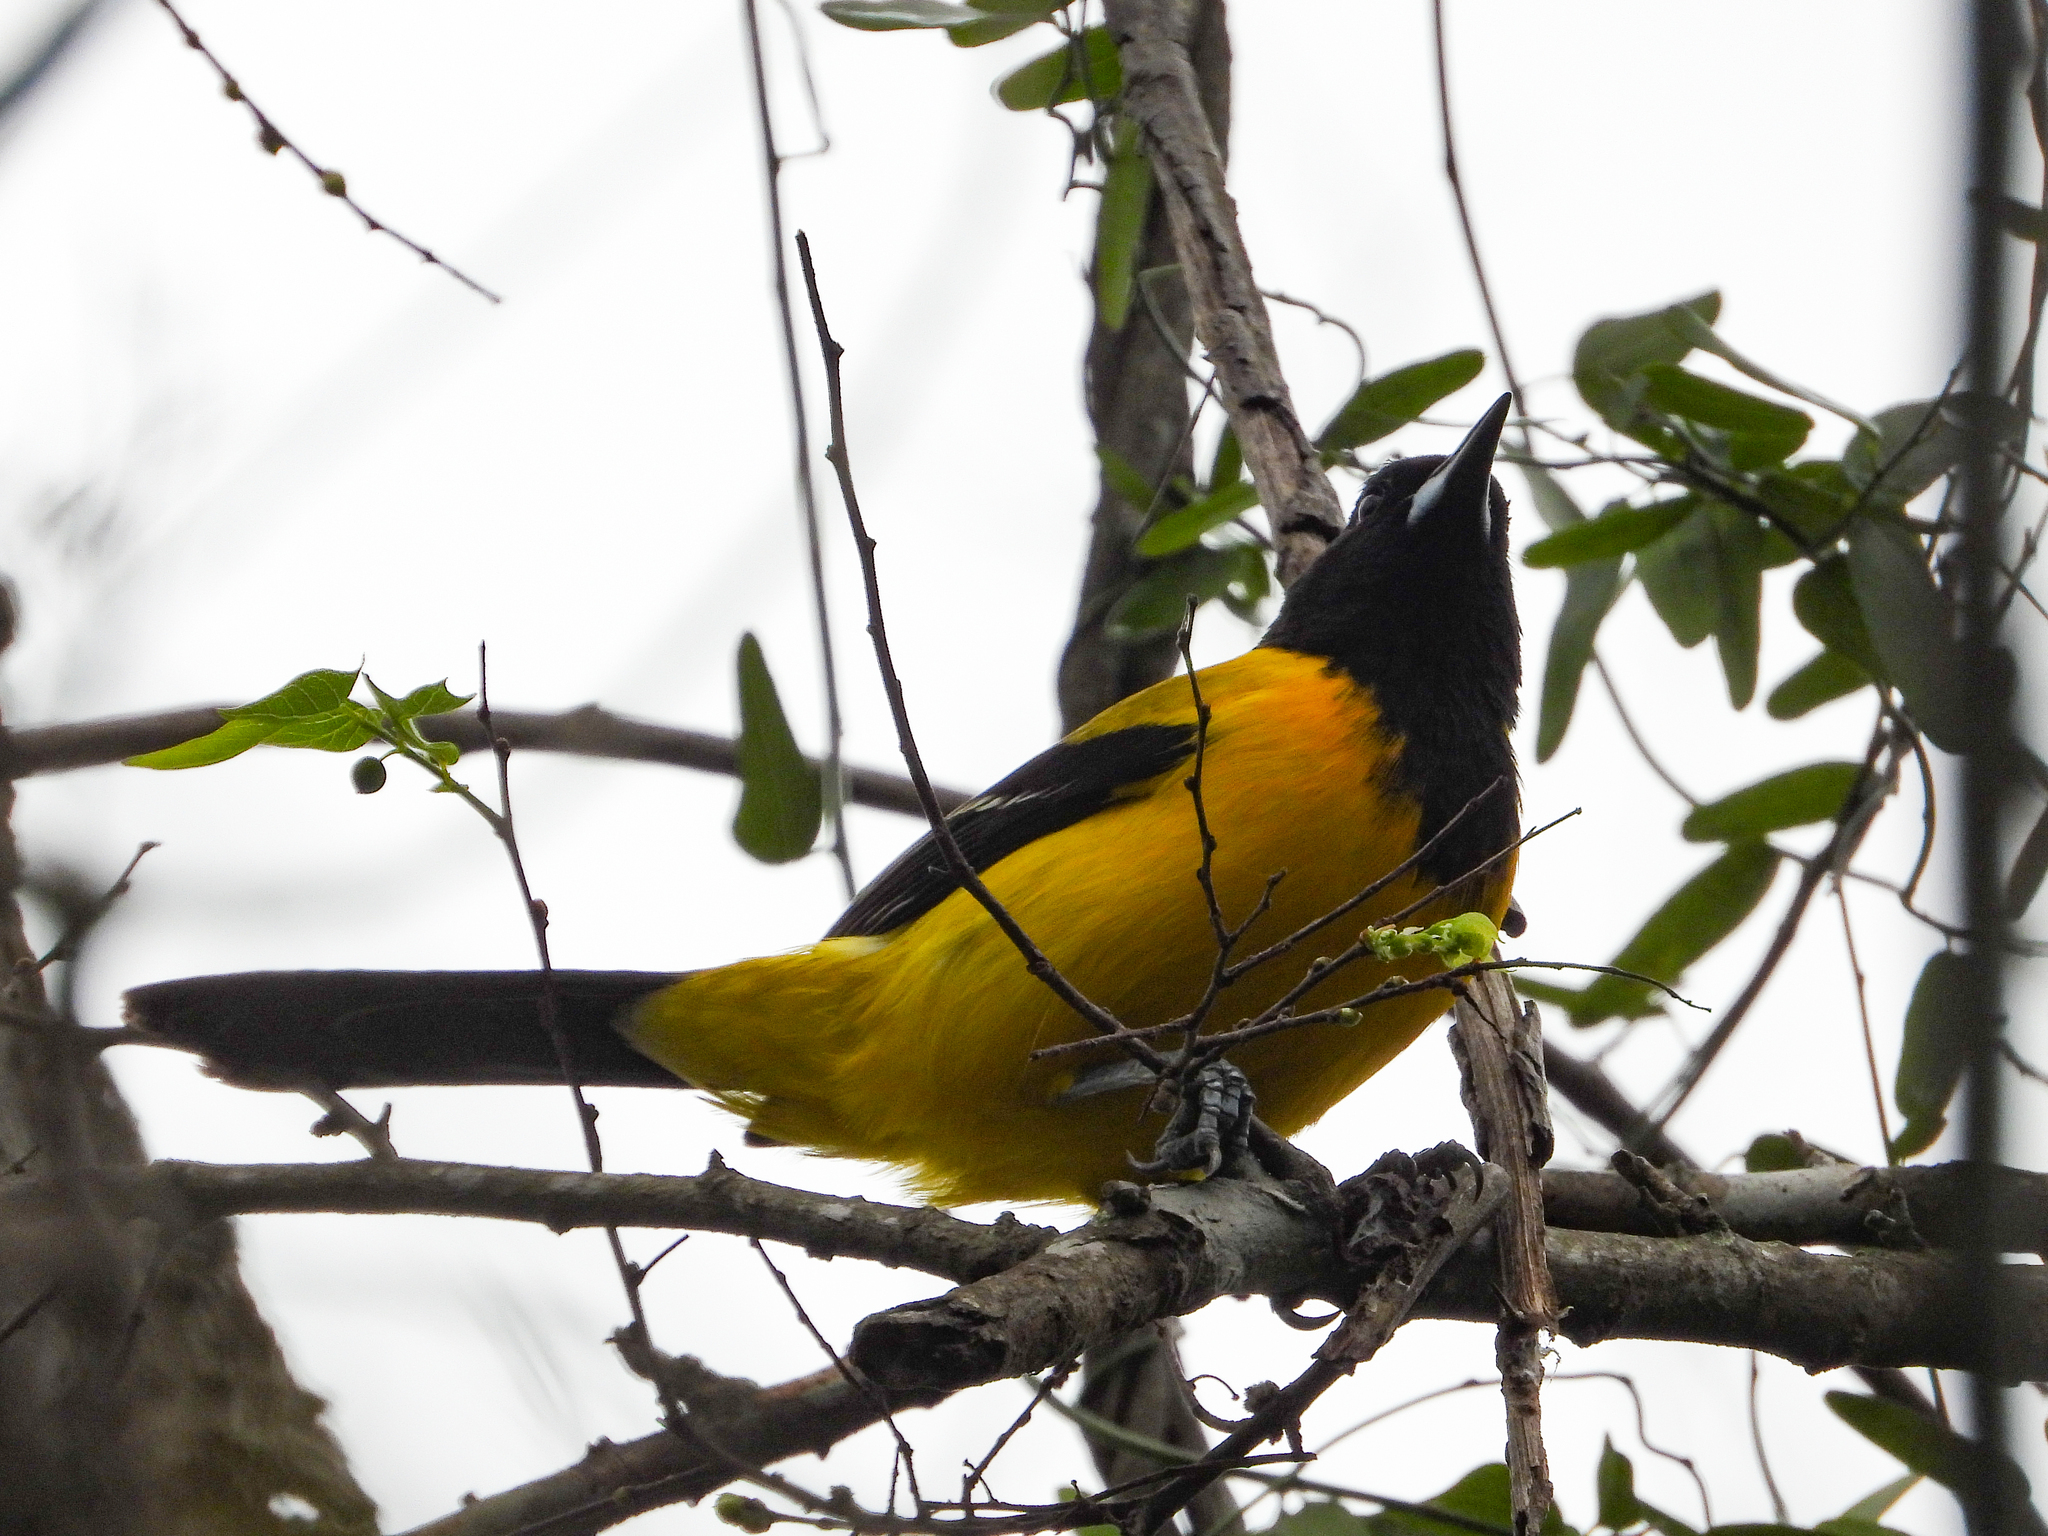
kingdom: Animalia
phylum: Chordata
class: Aves
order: Passeriformes
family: Icteridae
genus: Icterus
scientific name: Icterus graduacauda
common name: Audubon's oriole
